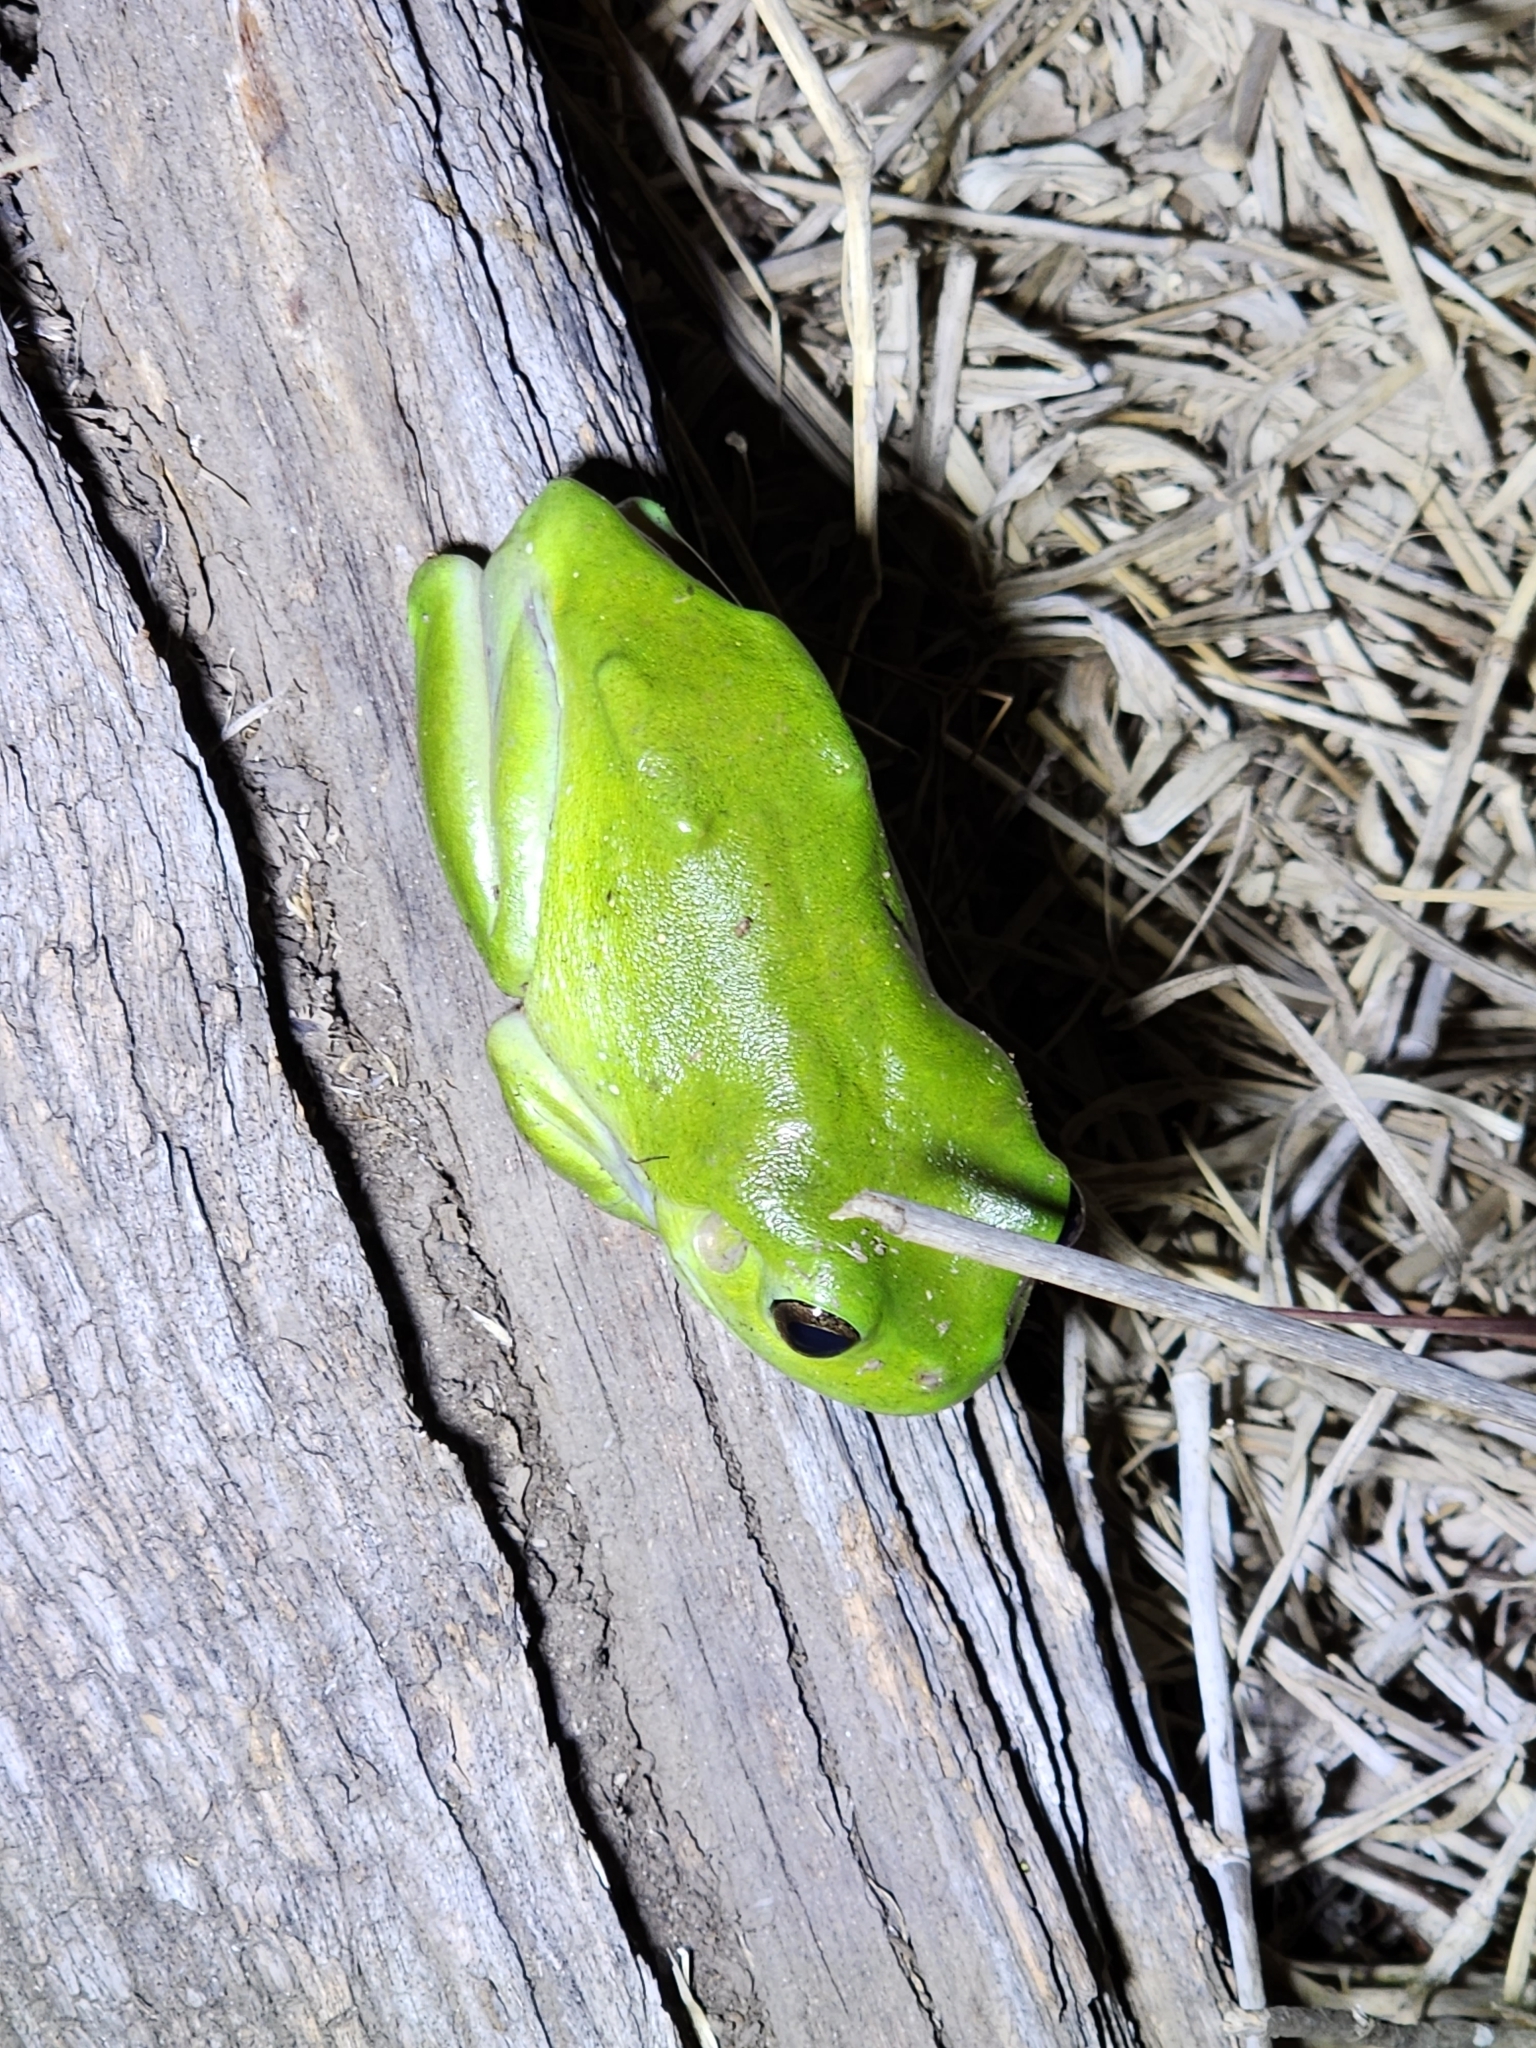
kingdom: Animalia
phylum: Chordata
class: Amphibia
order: Anura
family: Pelodryadidae
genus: Ranoidea
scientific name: Ranoidea caerulea
